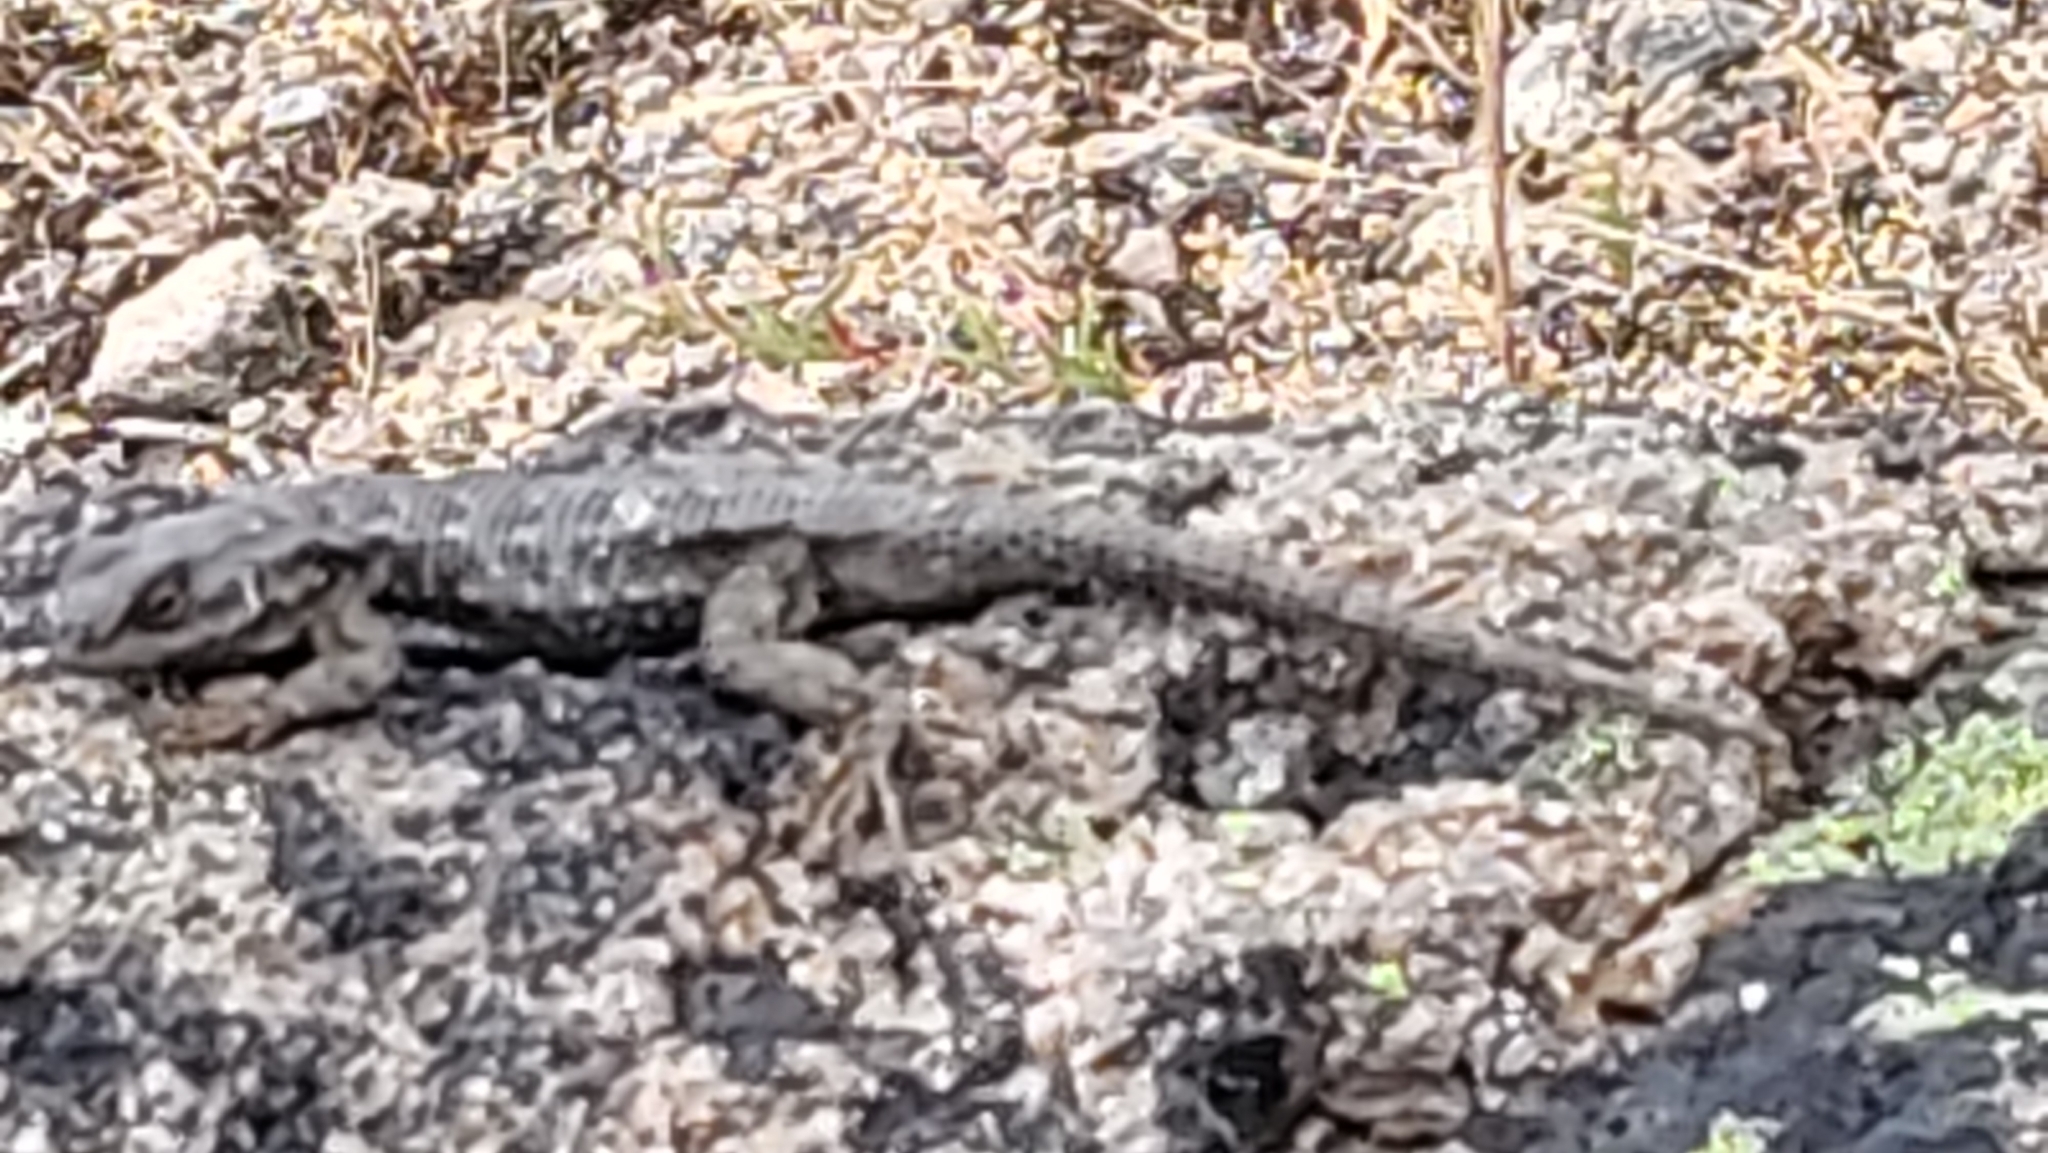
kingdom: Animalia
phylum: Chordata
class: Squamata
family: Phrynosomatidae
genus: Sceloporus
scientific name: Sceloporus occidentalis
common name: Western fence lizard
